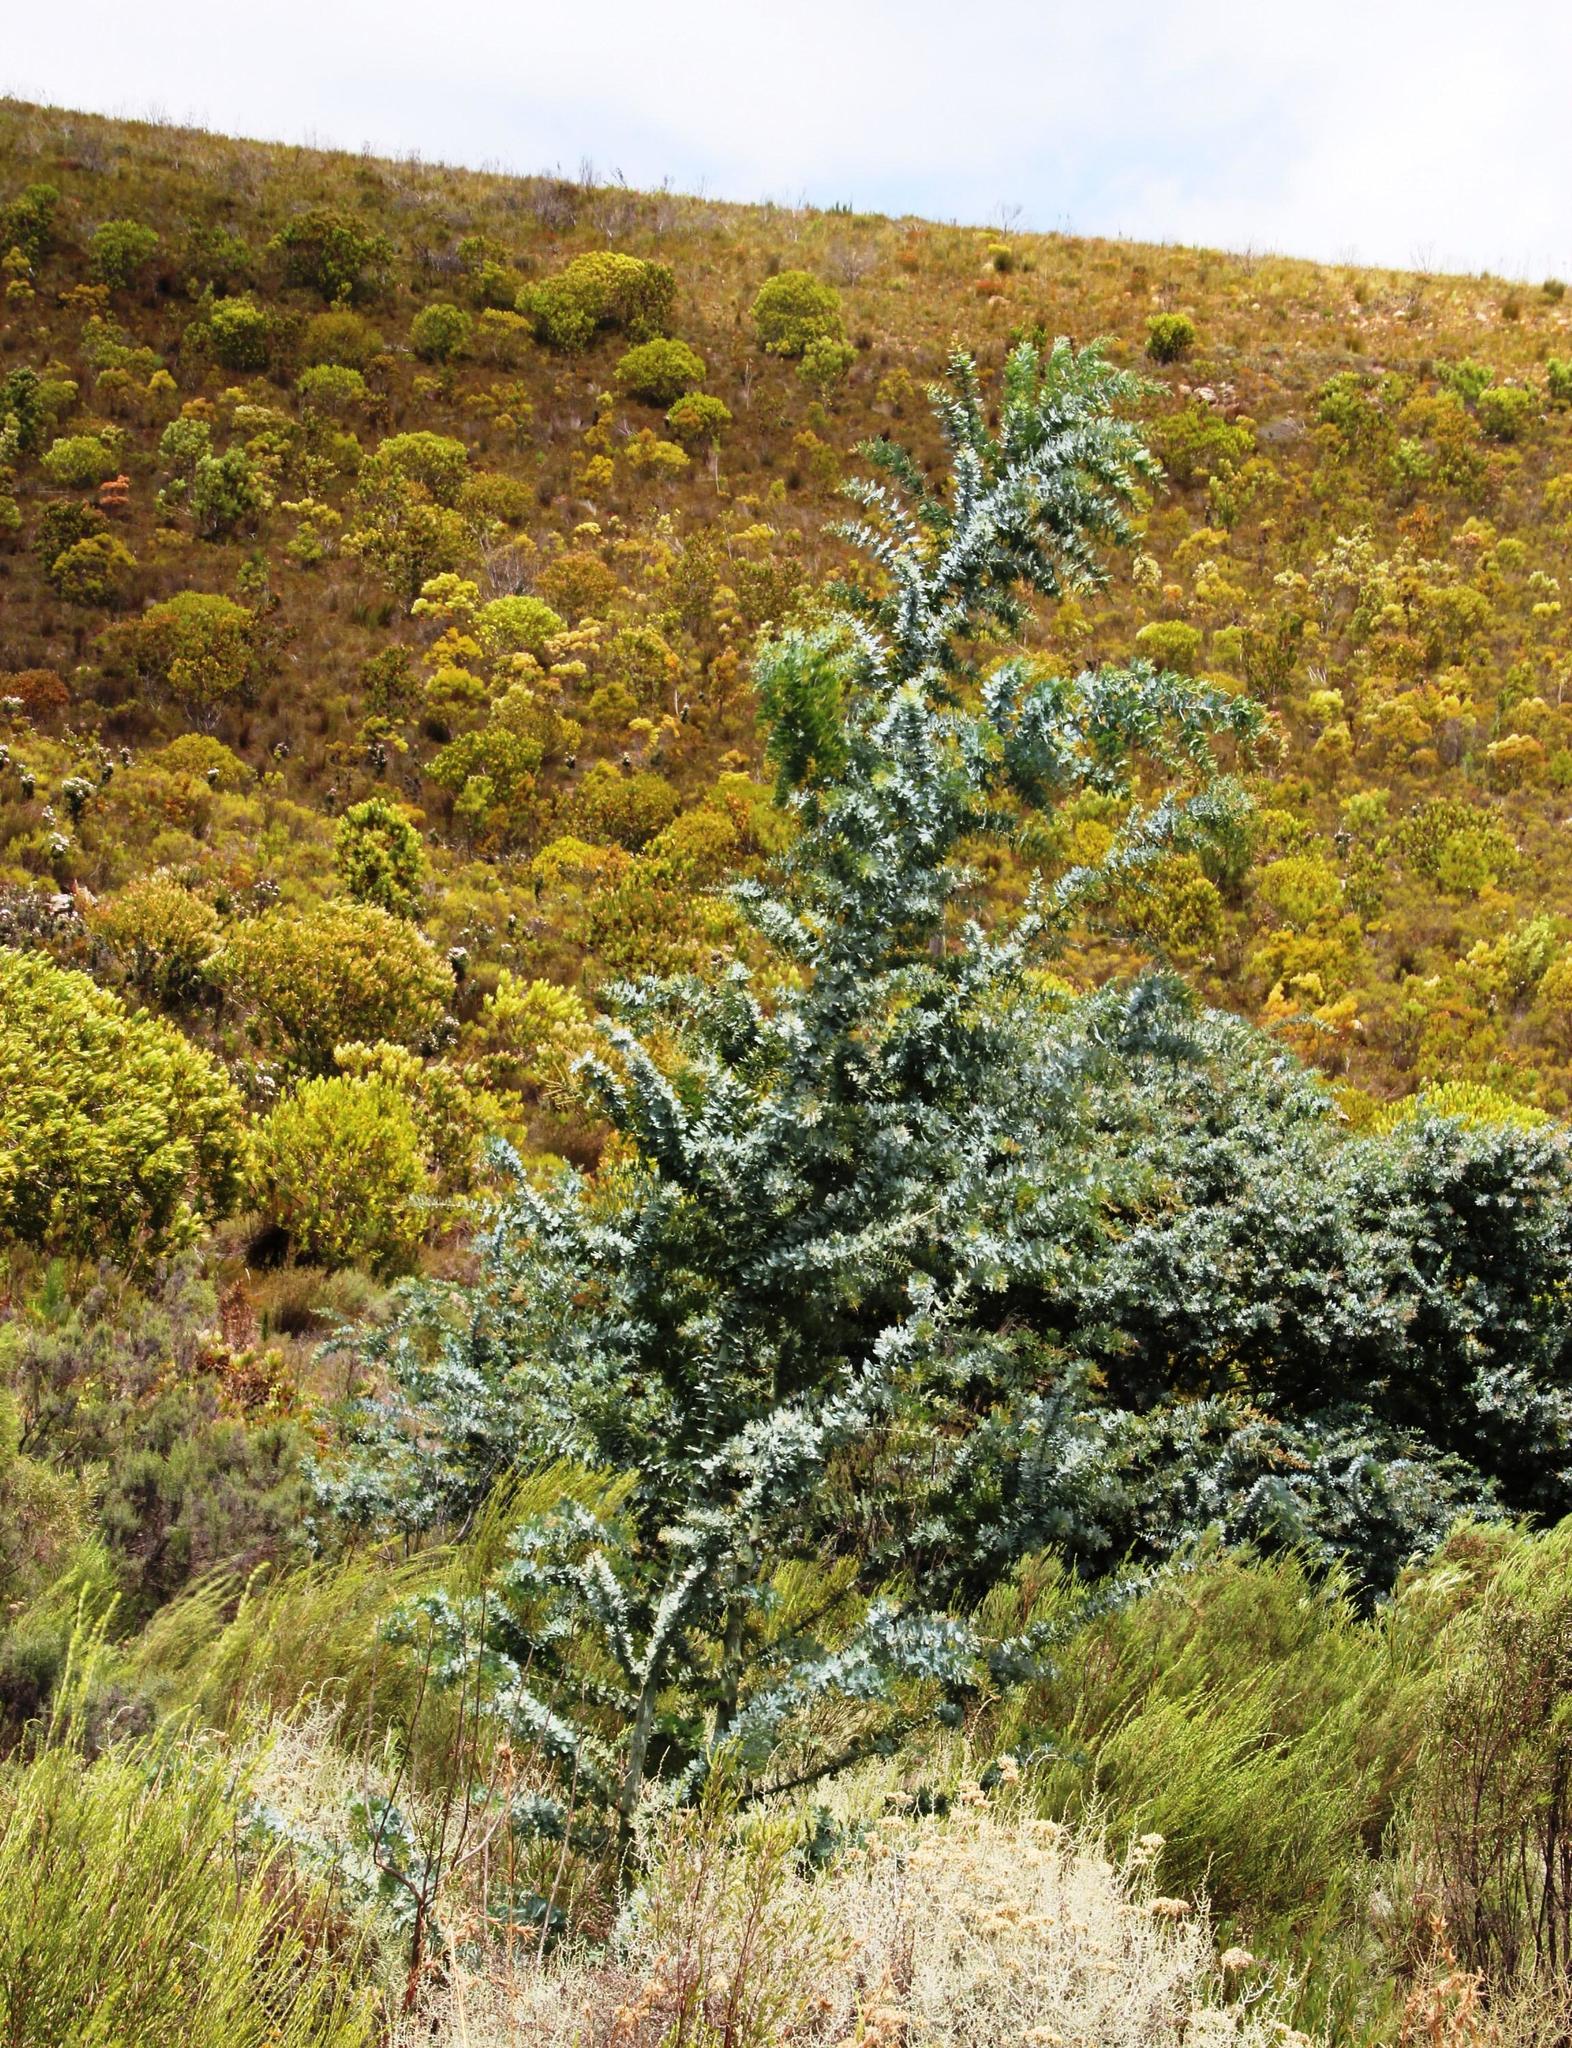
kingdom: Plantae
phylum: Tracheophyta
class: Magnoliopsida
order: Fabales
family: Fabaceae
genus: Acacia
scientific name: Acacia baileyana
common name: Cootamundra wattle
